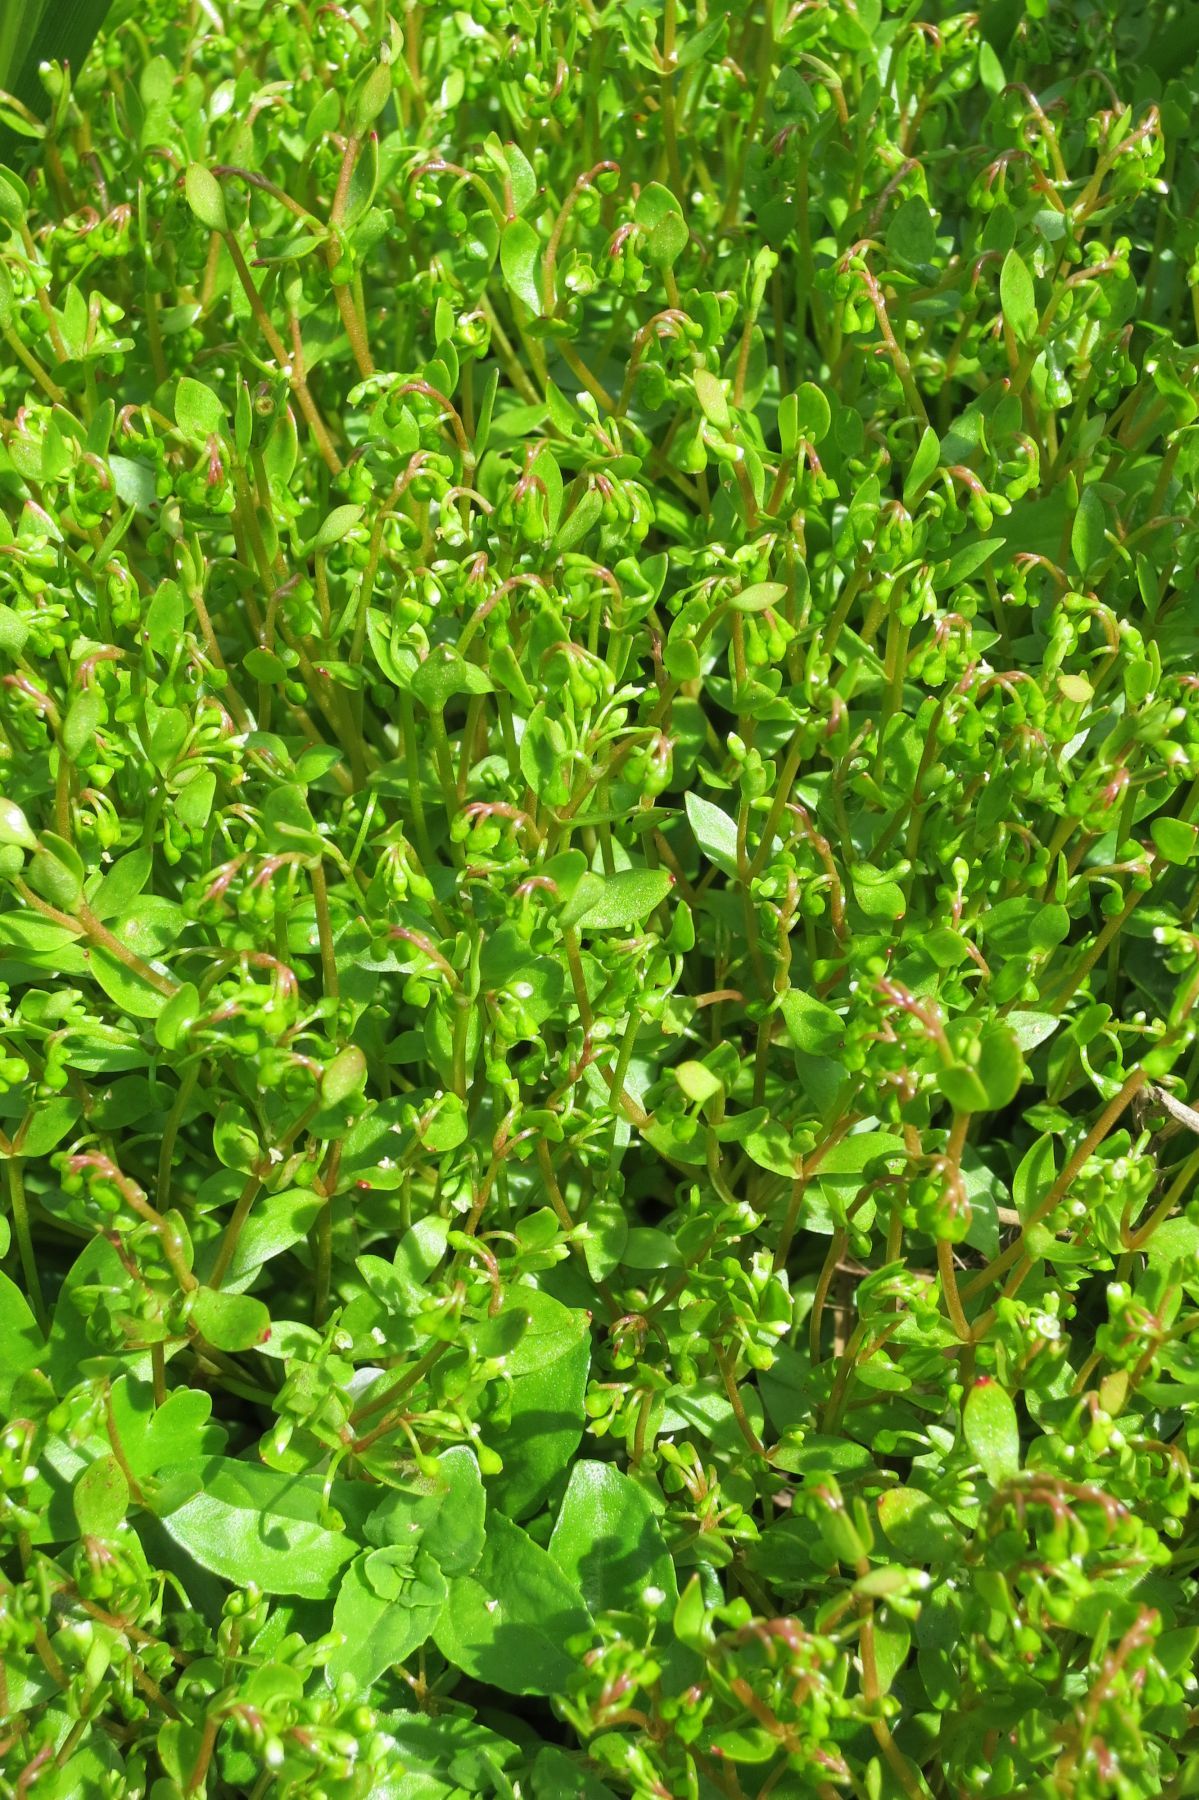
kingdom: Plantae
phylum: Tracheophyta
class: Magnoliopsida
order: Caryophyllales
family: Montiaceae
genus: Montia
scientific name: Montia fontana
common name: Blinks
